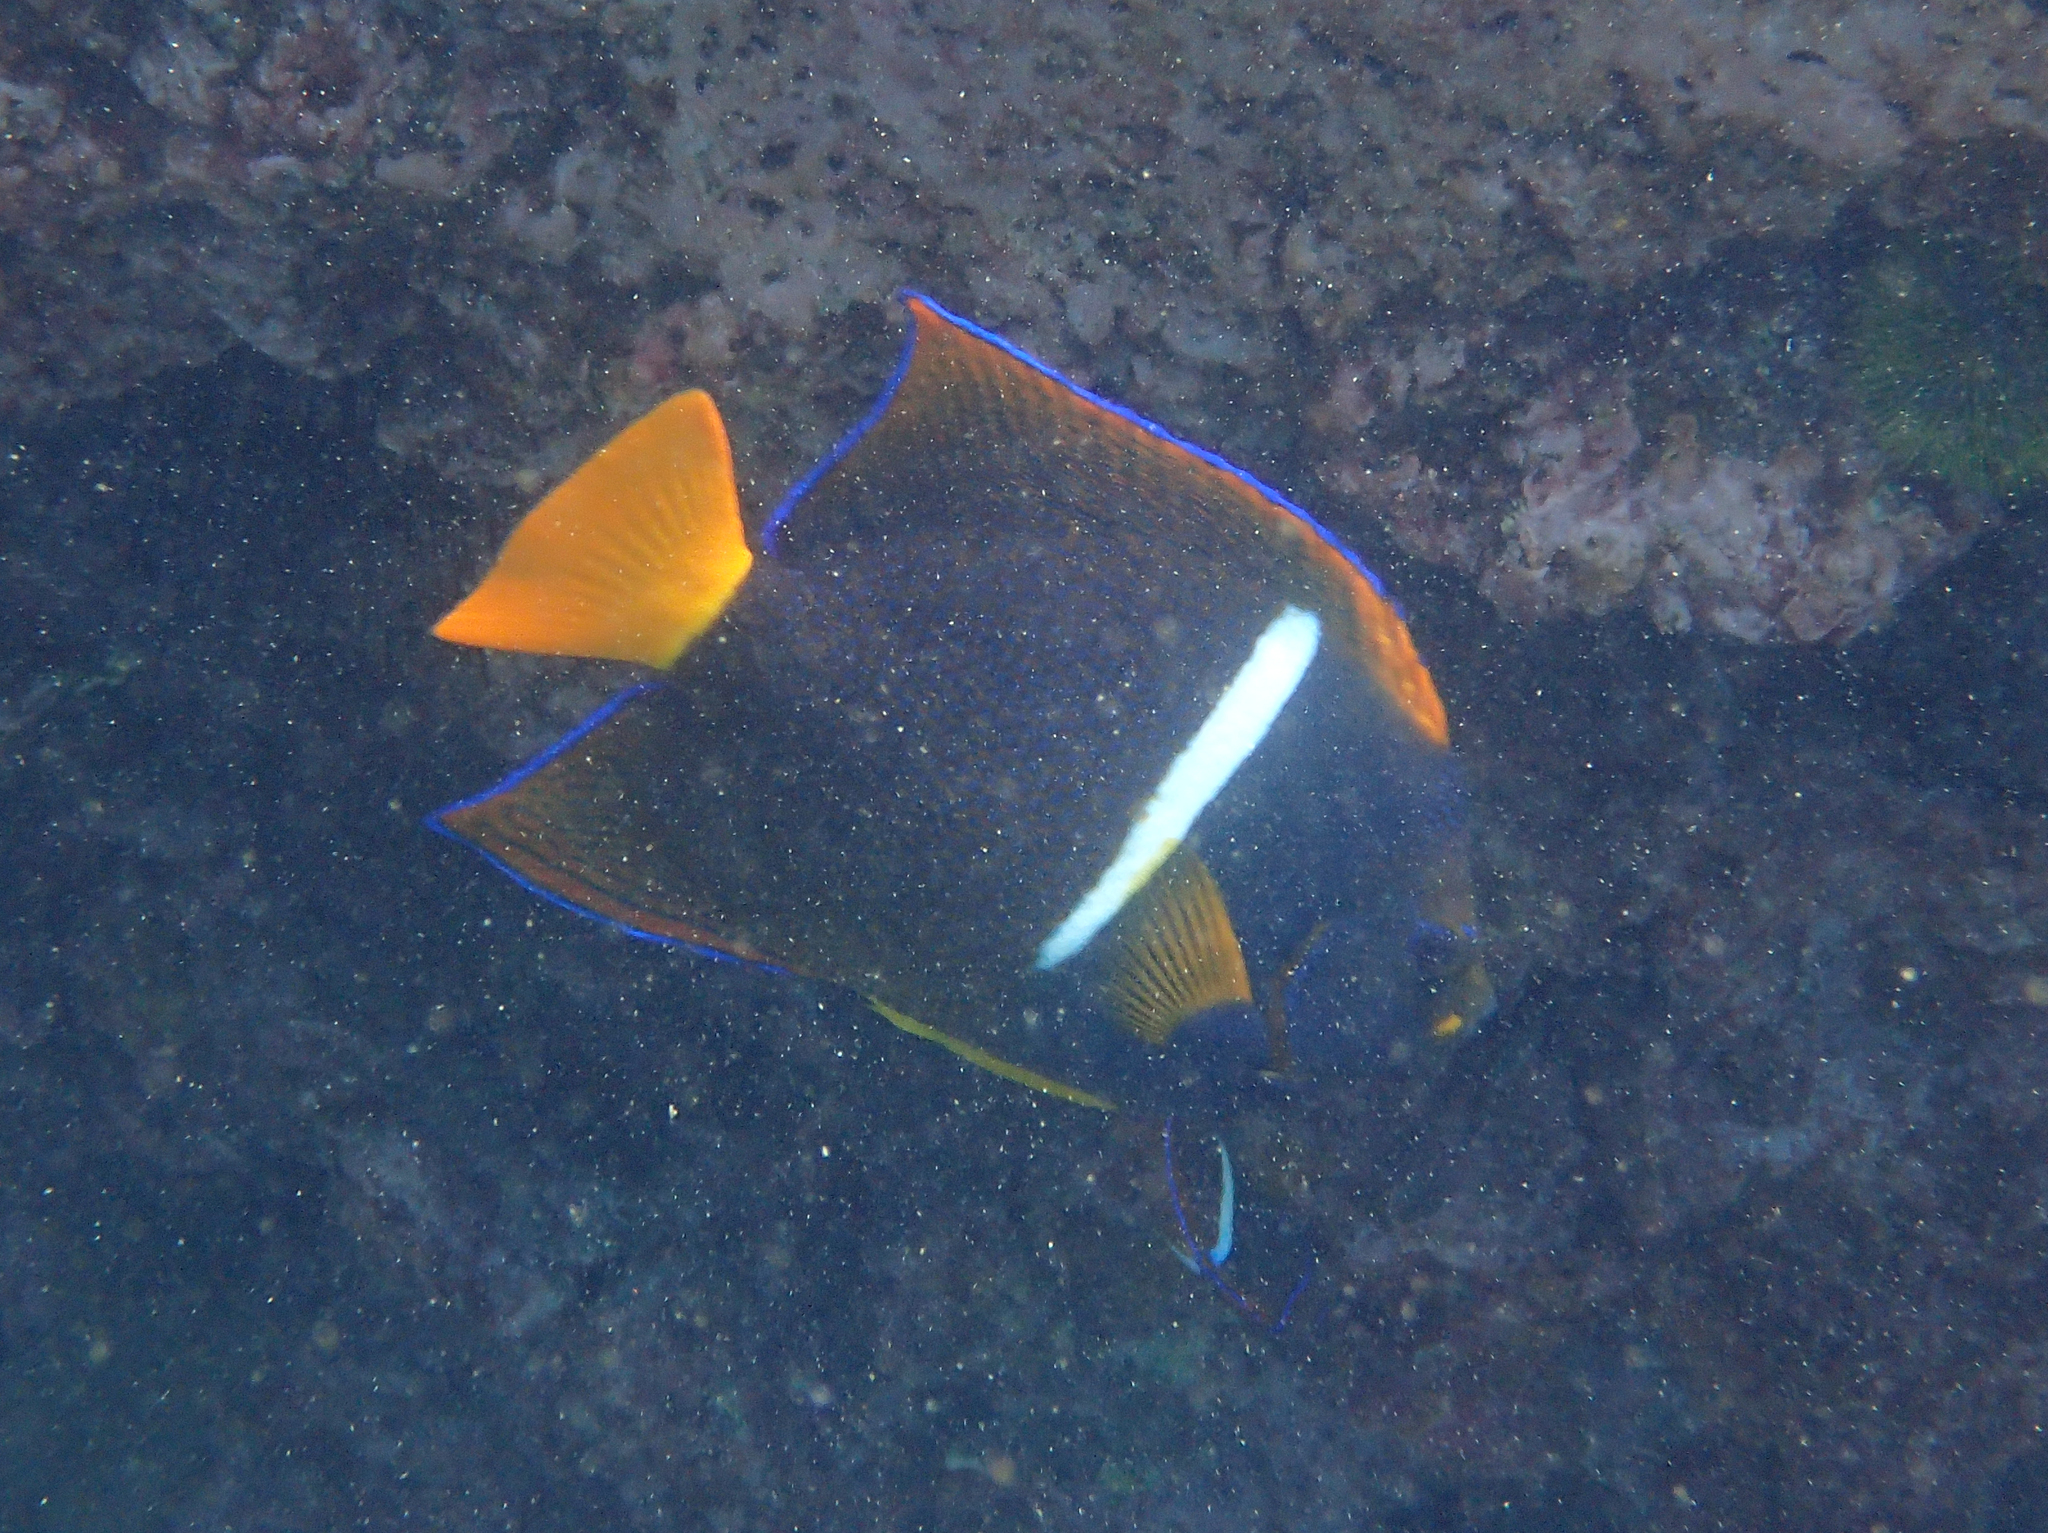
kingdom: Animalia
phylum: Chordata
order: Perciformes
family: Pomacanthidae
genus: Holacanthus
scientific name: Holacanthus passer
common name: King angelfish
